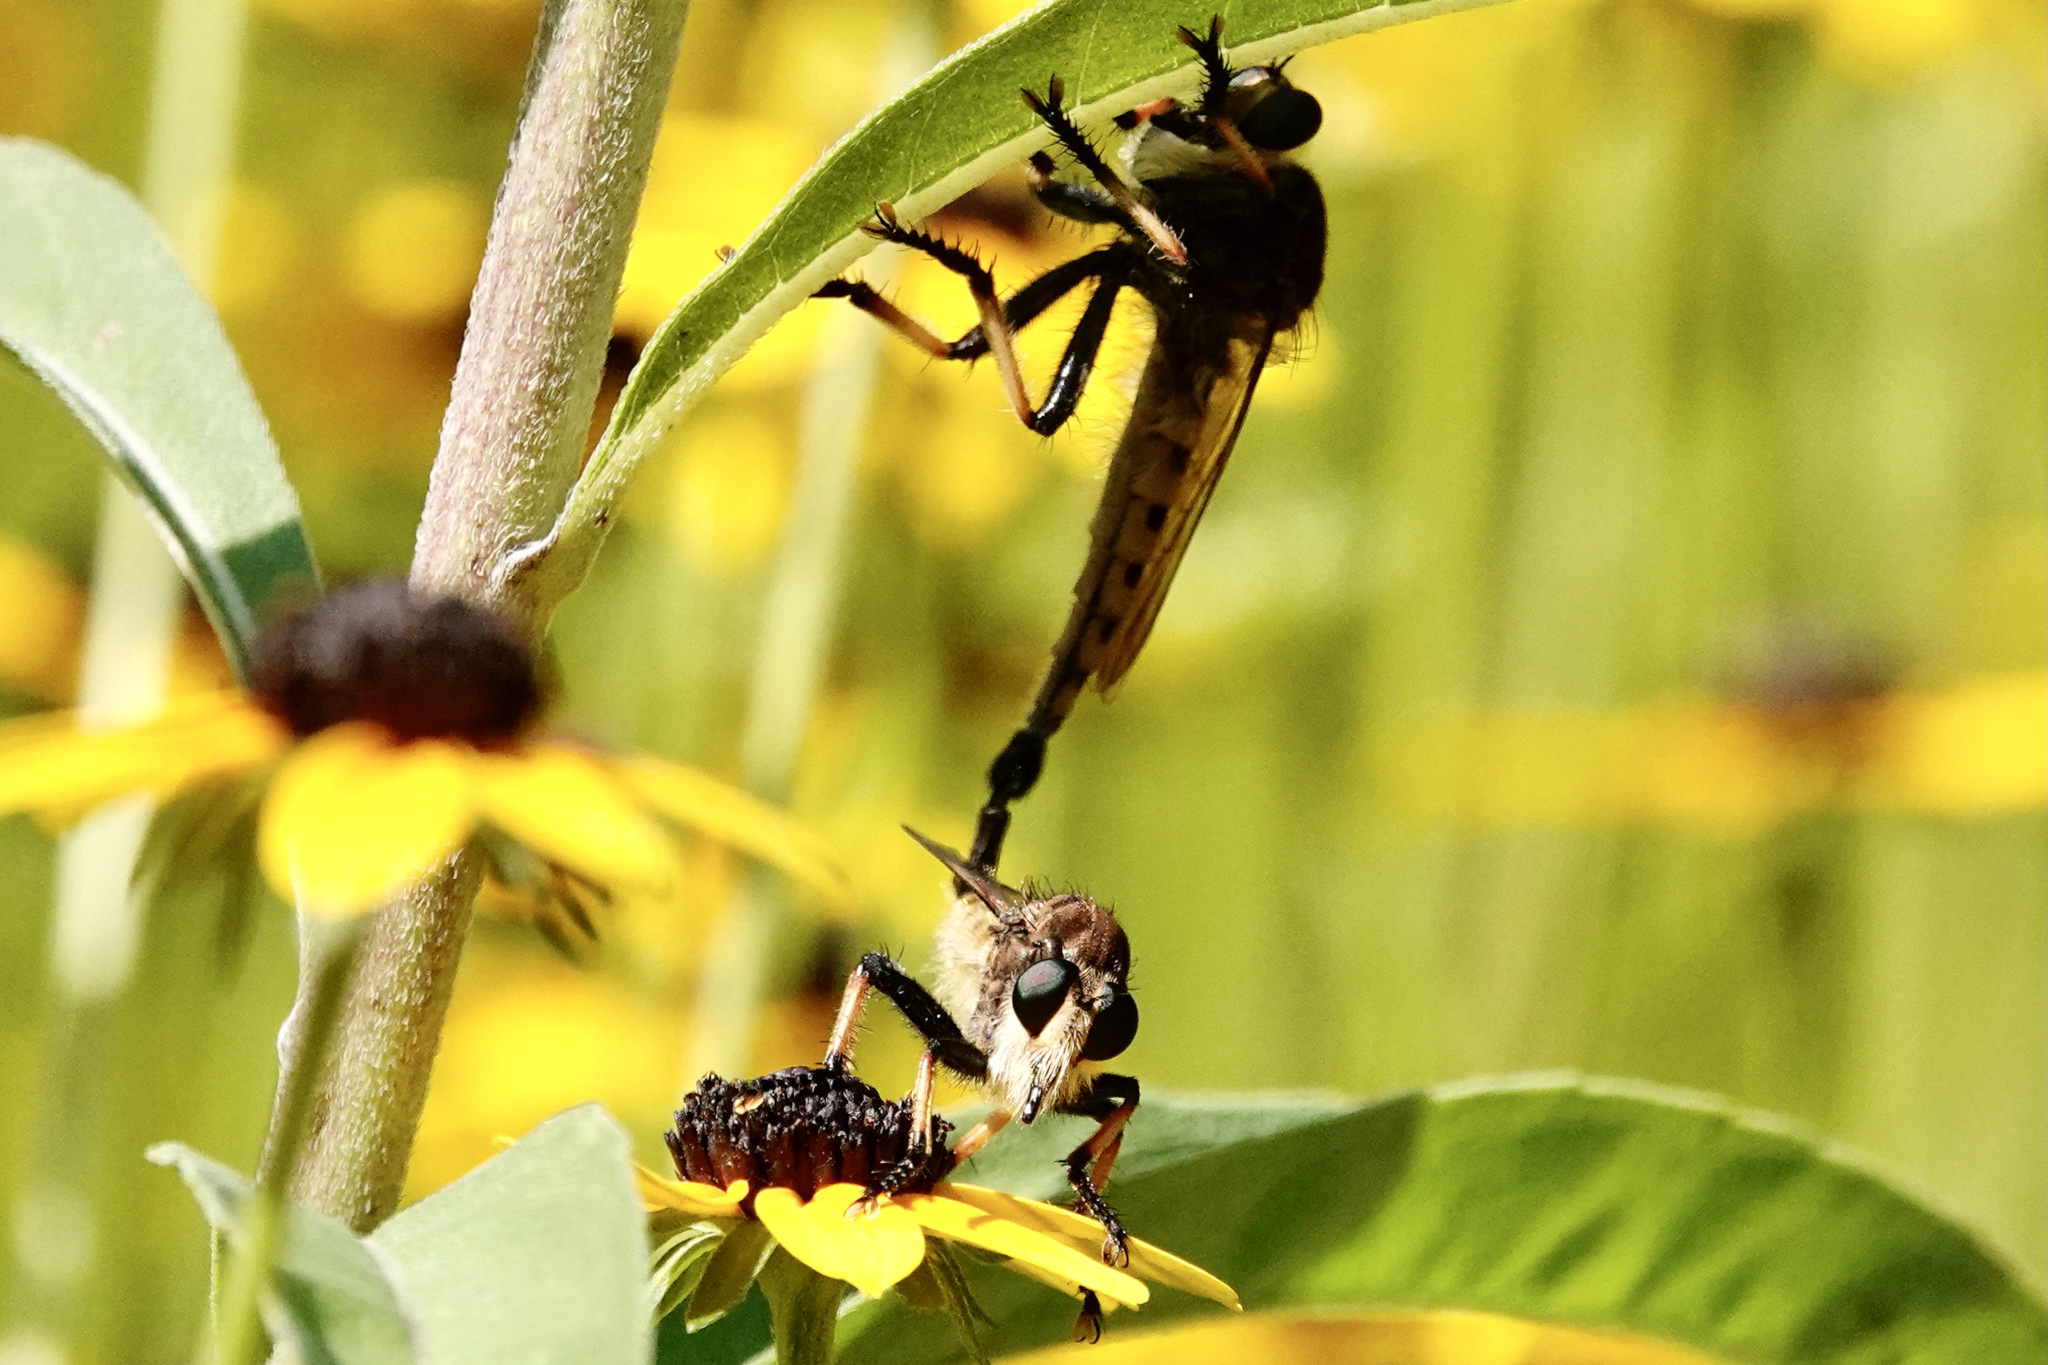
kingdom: Animalia
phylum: Arthropoda
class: Insecta
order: Diptera
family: Asilidae
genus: Promachus
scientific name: Promachus rufipes
